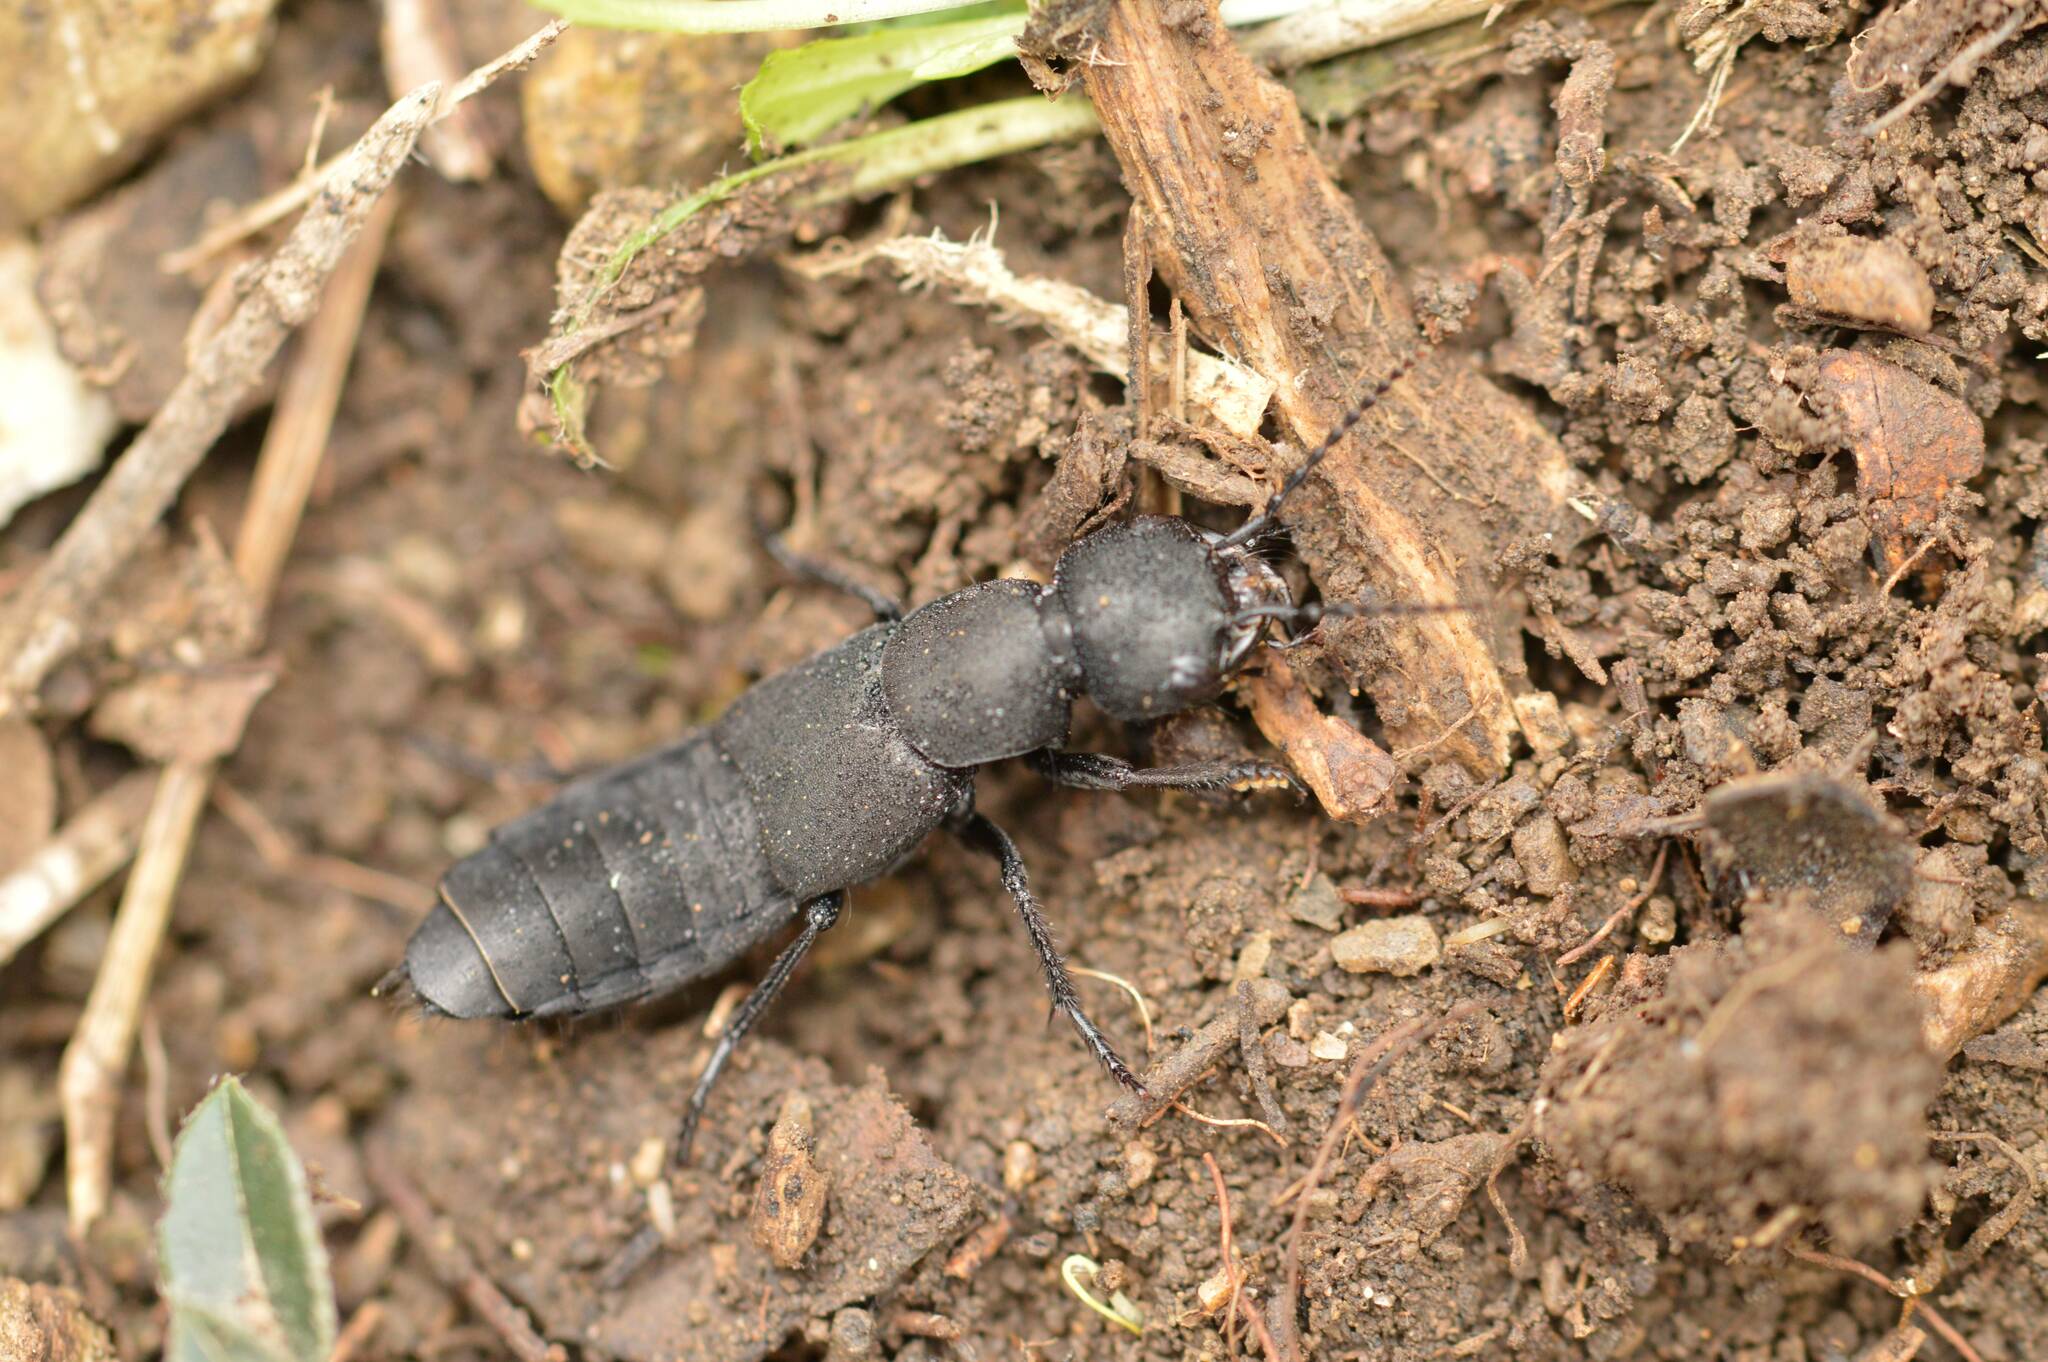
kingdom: Animalia
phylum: Arthropoda
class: Insecta
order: Coleoptera
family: Staphylinidae
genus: Ocypus
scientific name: Ocypus olens
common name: Devil's coach-horse
